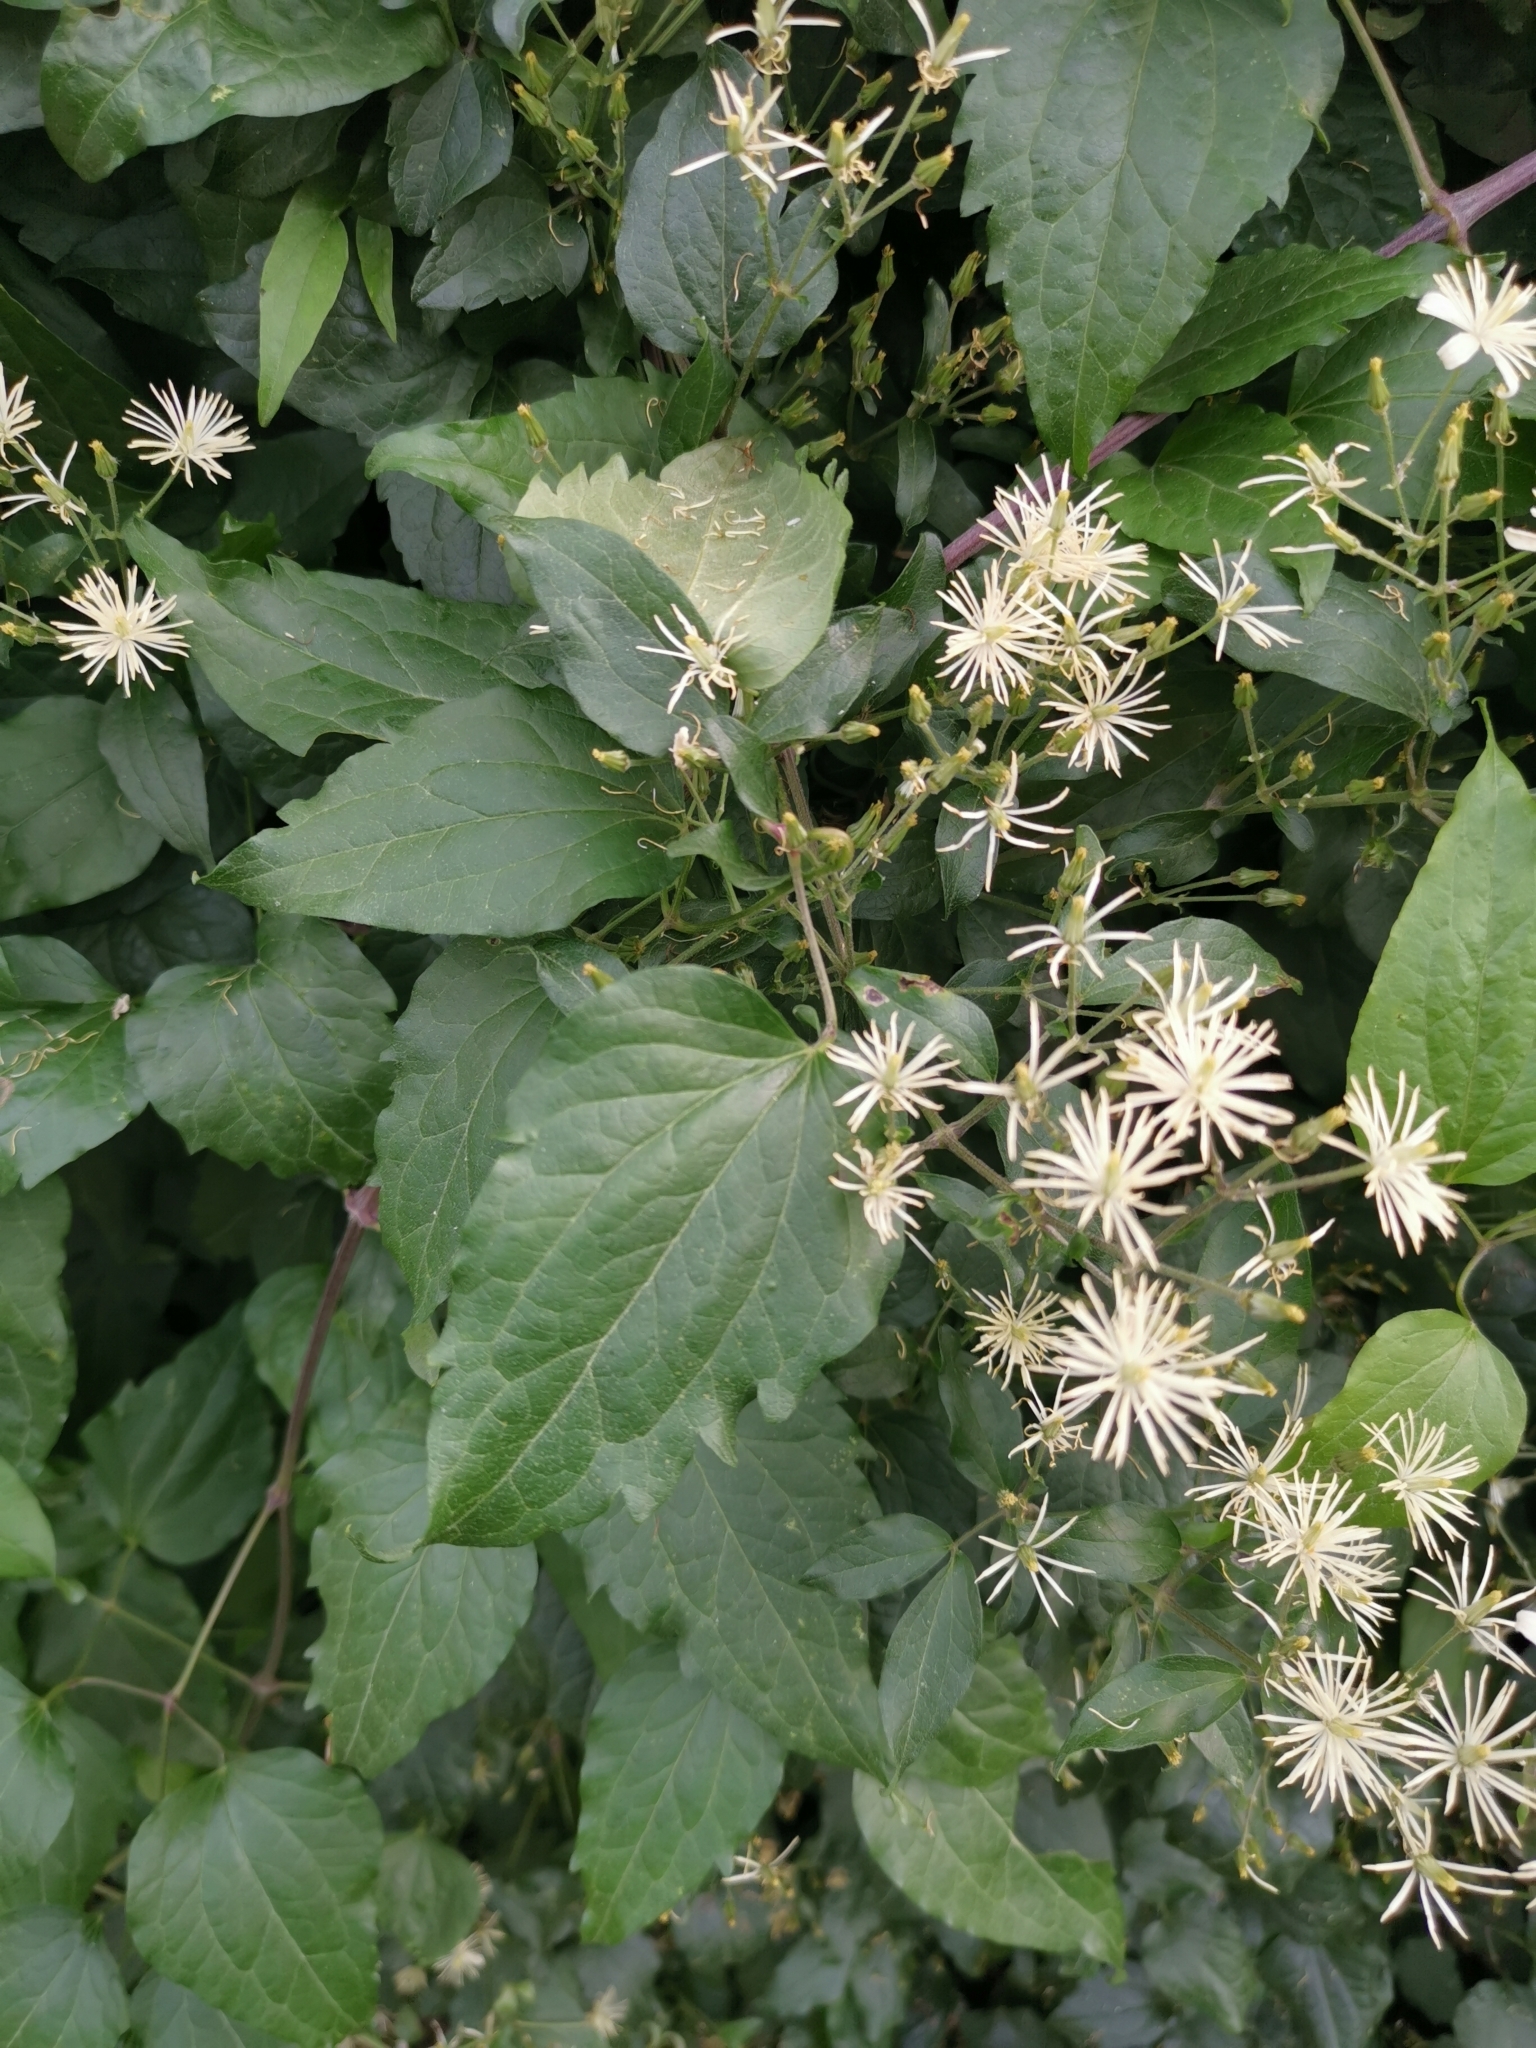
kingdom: Plantae
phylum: Tracheophyta
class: Magnoliopsida
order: Ranunculales
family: Ranunculaceae
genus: Clematis
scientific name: Clematis vitalba
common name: Evergreen clematis
